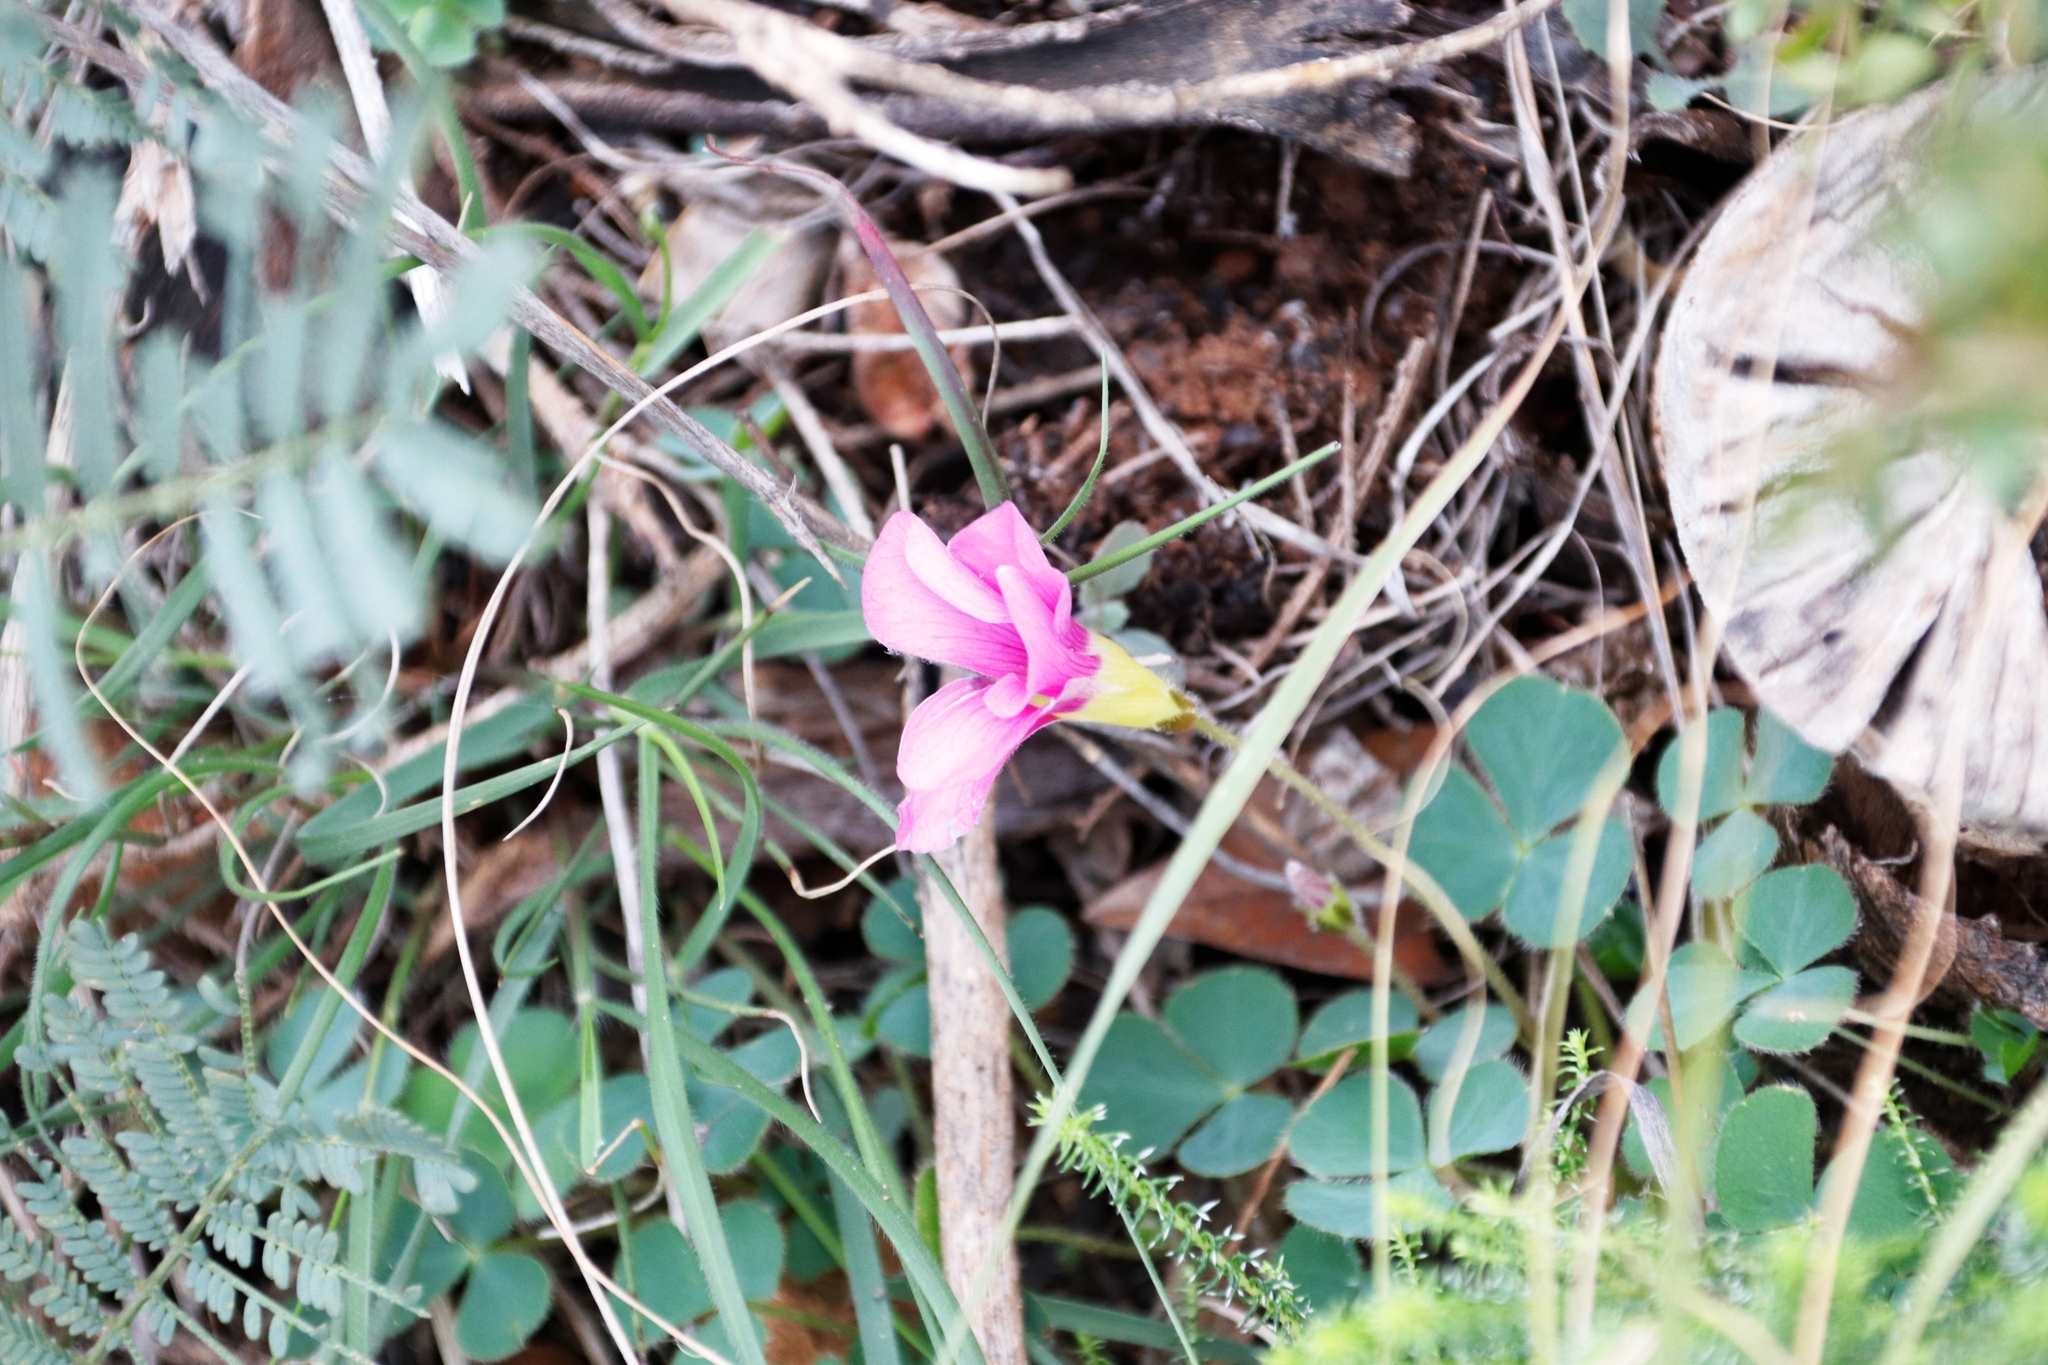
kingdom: Plantae
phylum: Tracheophyta
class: Magnoliopsida
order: Oxalidales
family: Oxalidaceae
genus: Oxalis
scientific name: Oxalis purpurea
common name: Purple woodsorrel
